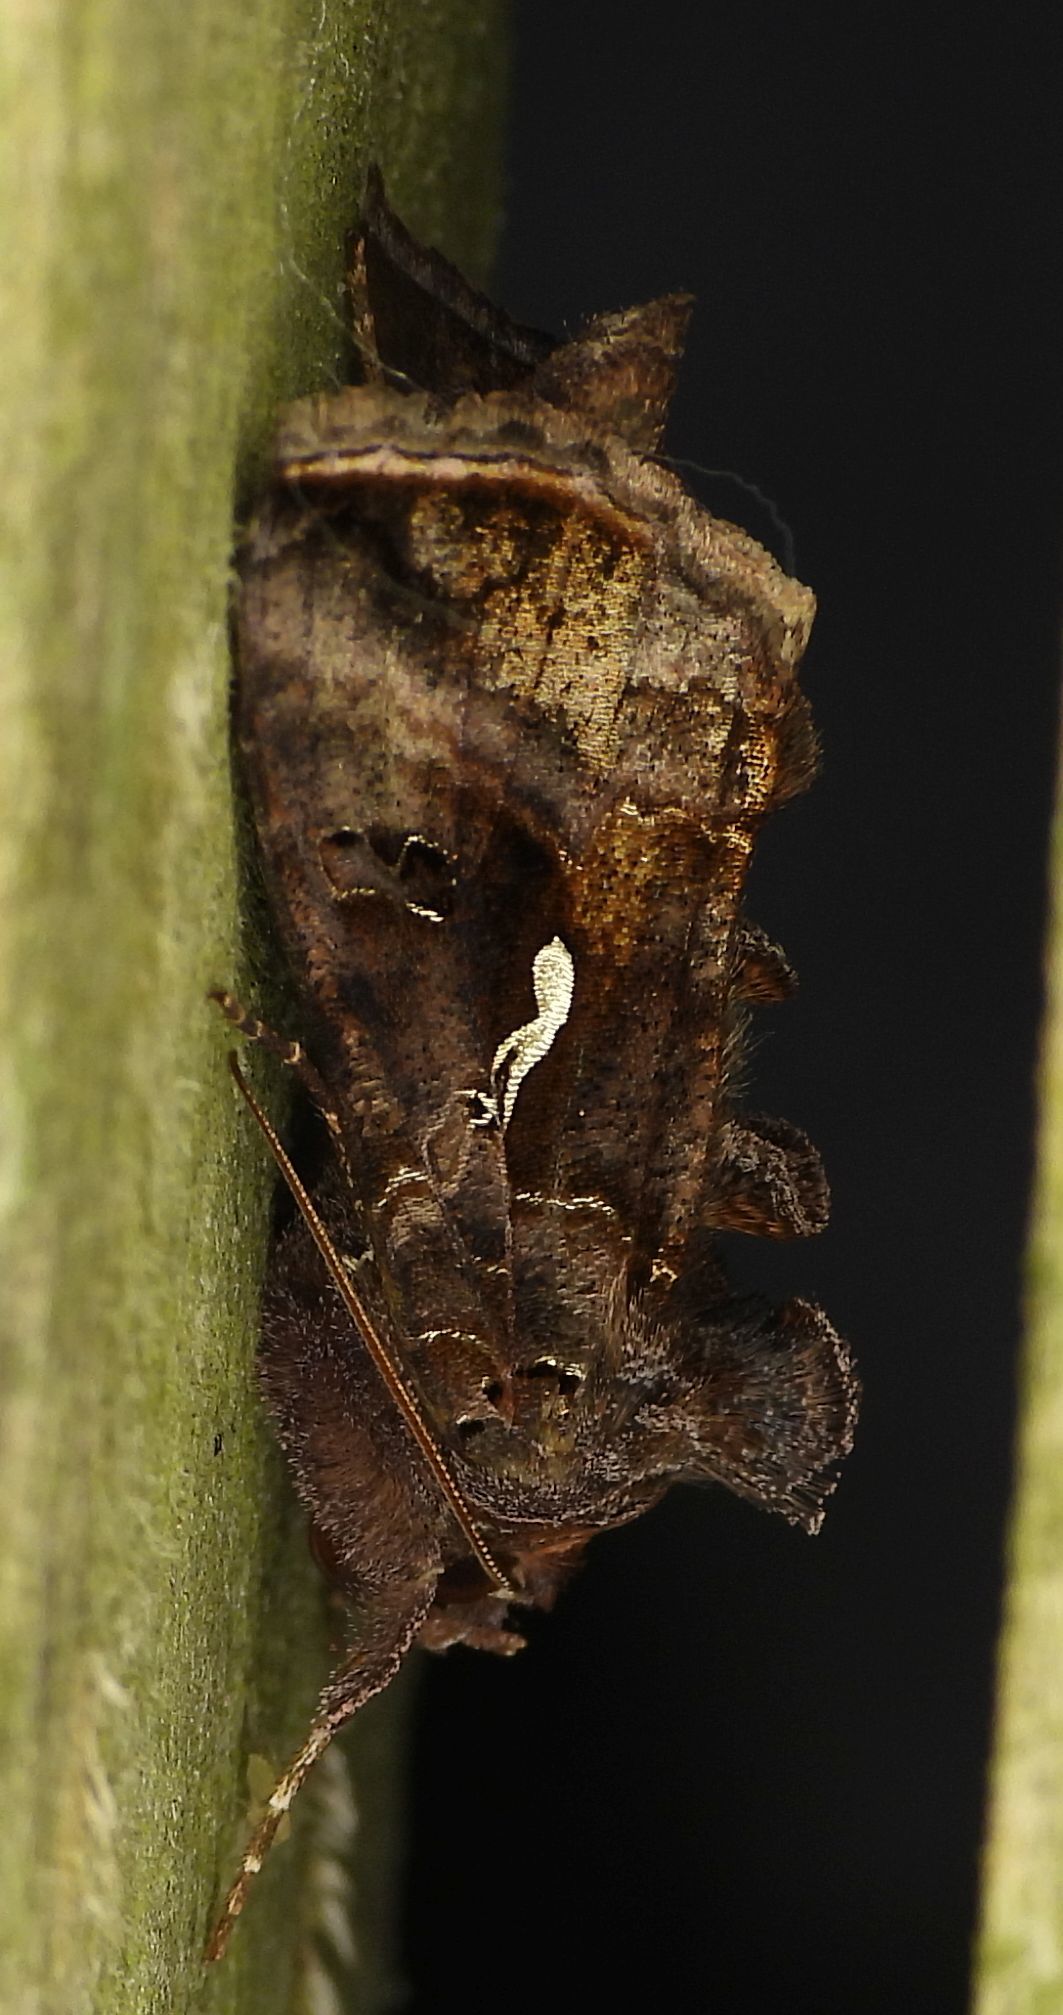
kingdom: Animalia
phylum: Arthropoda
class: Insecta
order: Lepidoptera
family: Noctuidae
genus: Autographa
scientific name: Autographa precationis
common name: Common looper moth
